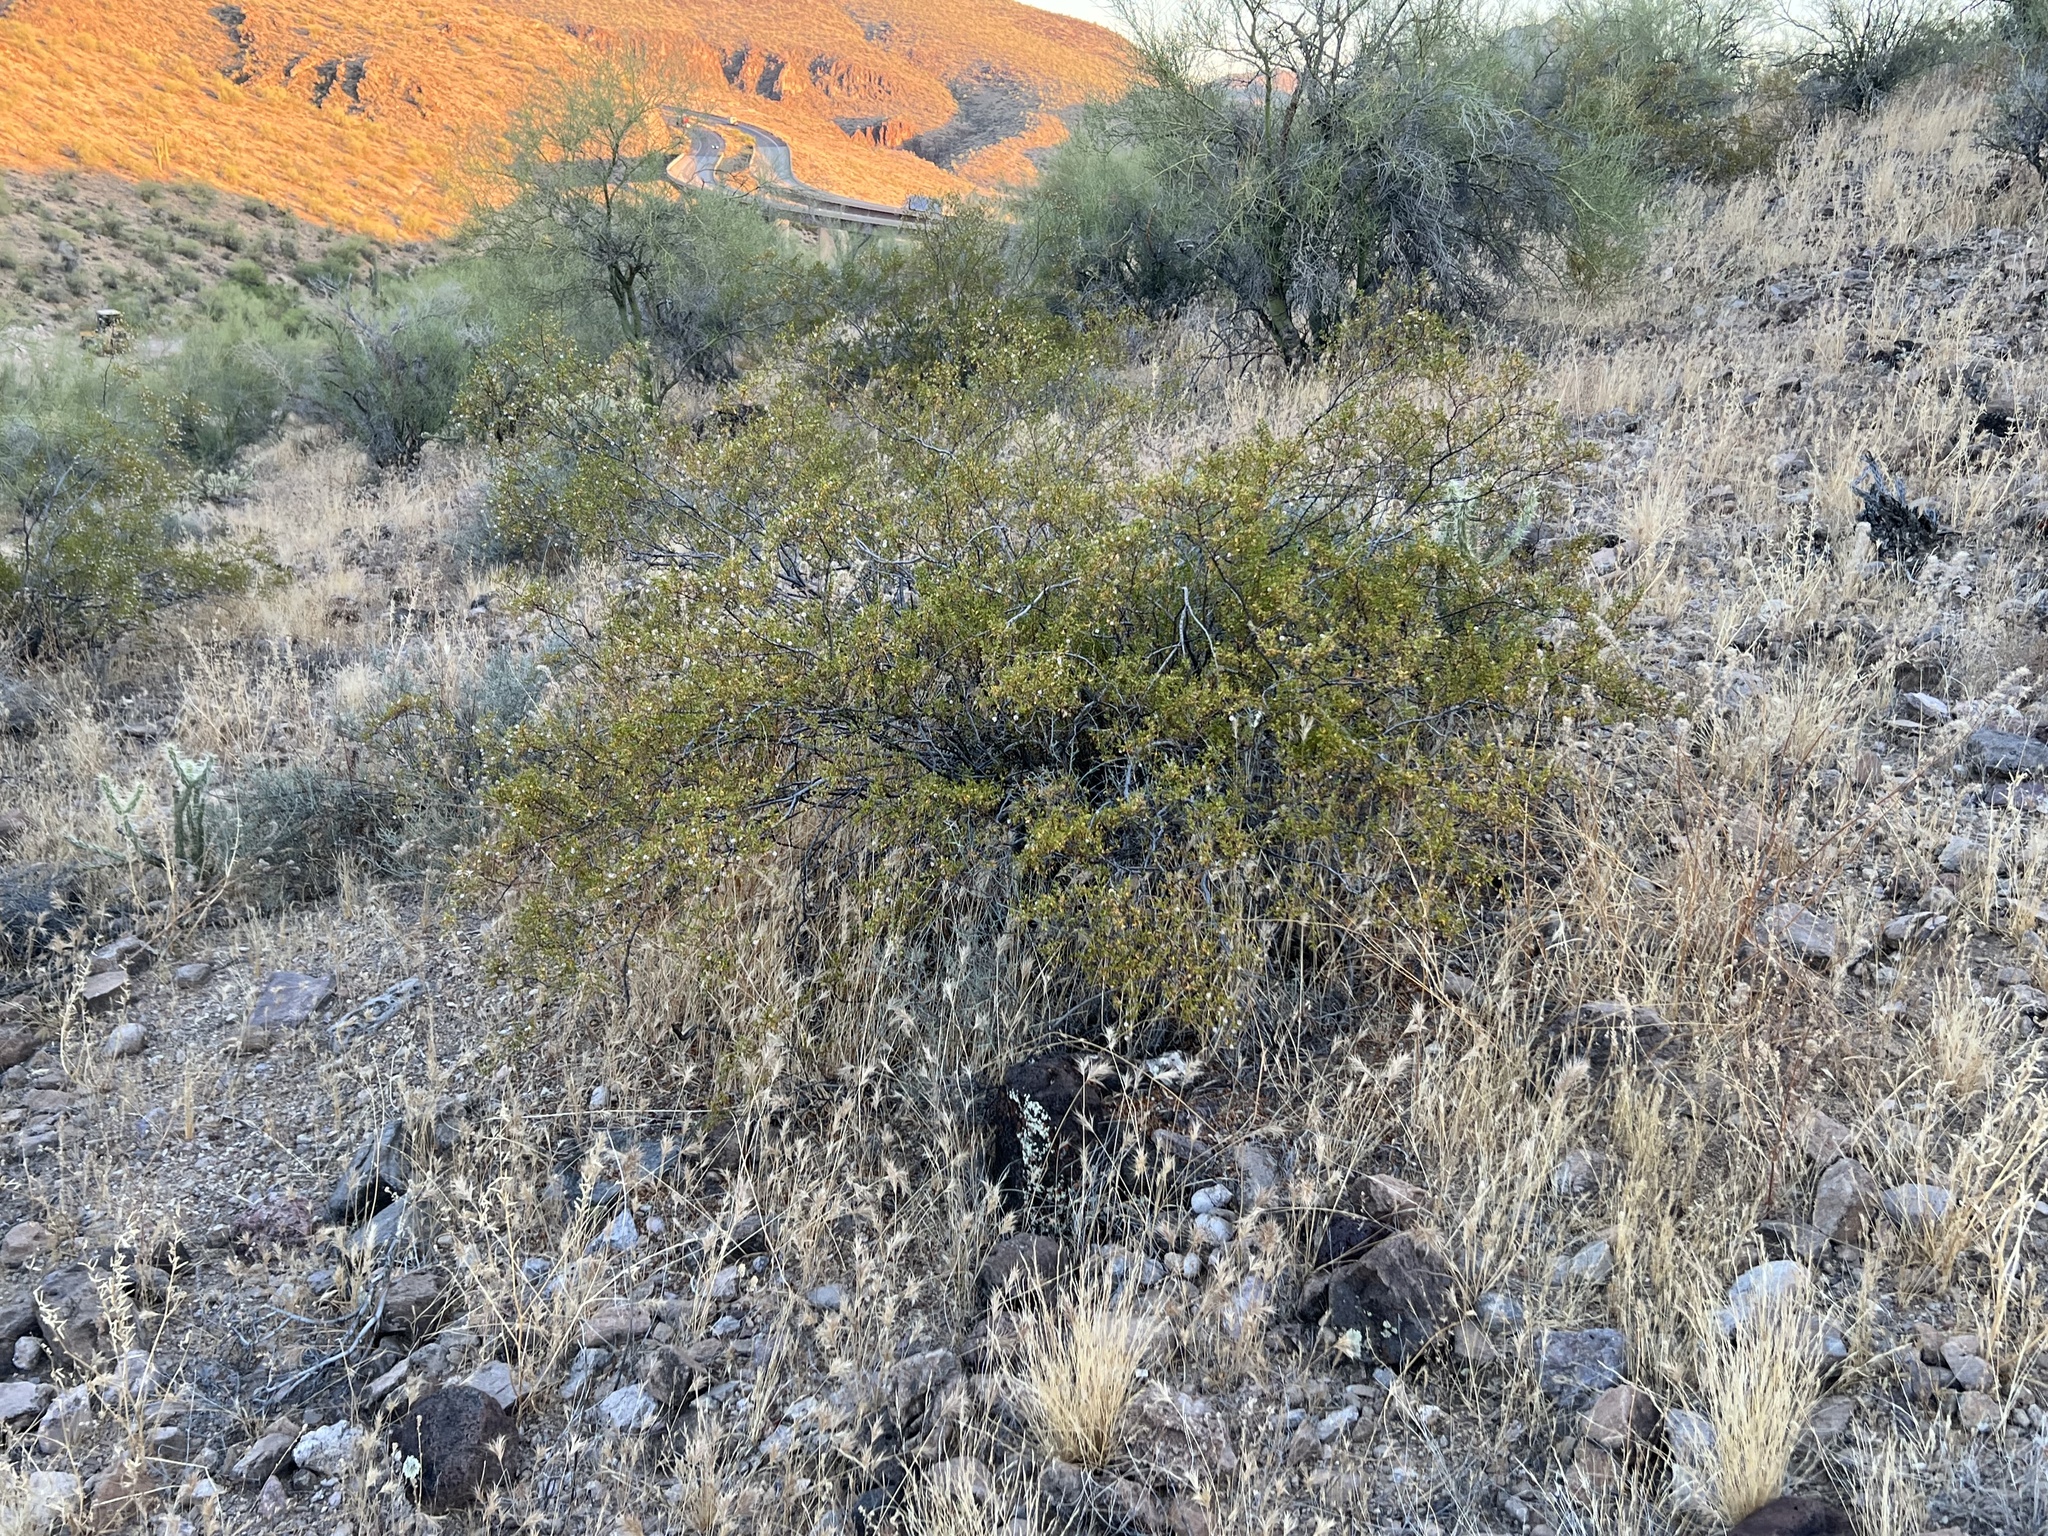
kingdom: Plantae
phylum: Tracheophyta
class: Magnoliopsida
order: Zygophyllales
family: Zygophyllaceae
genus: Larrea
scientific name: Larrea tridentata
